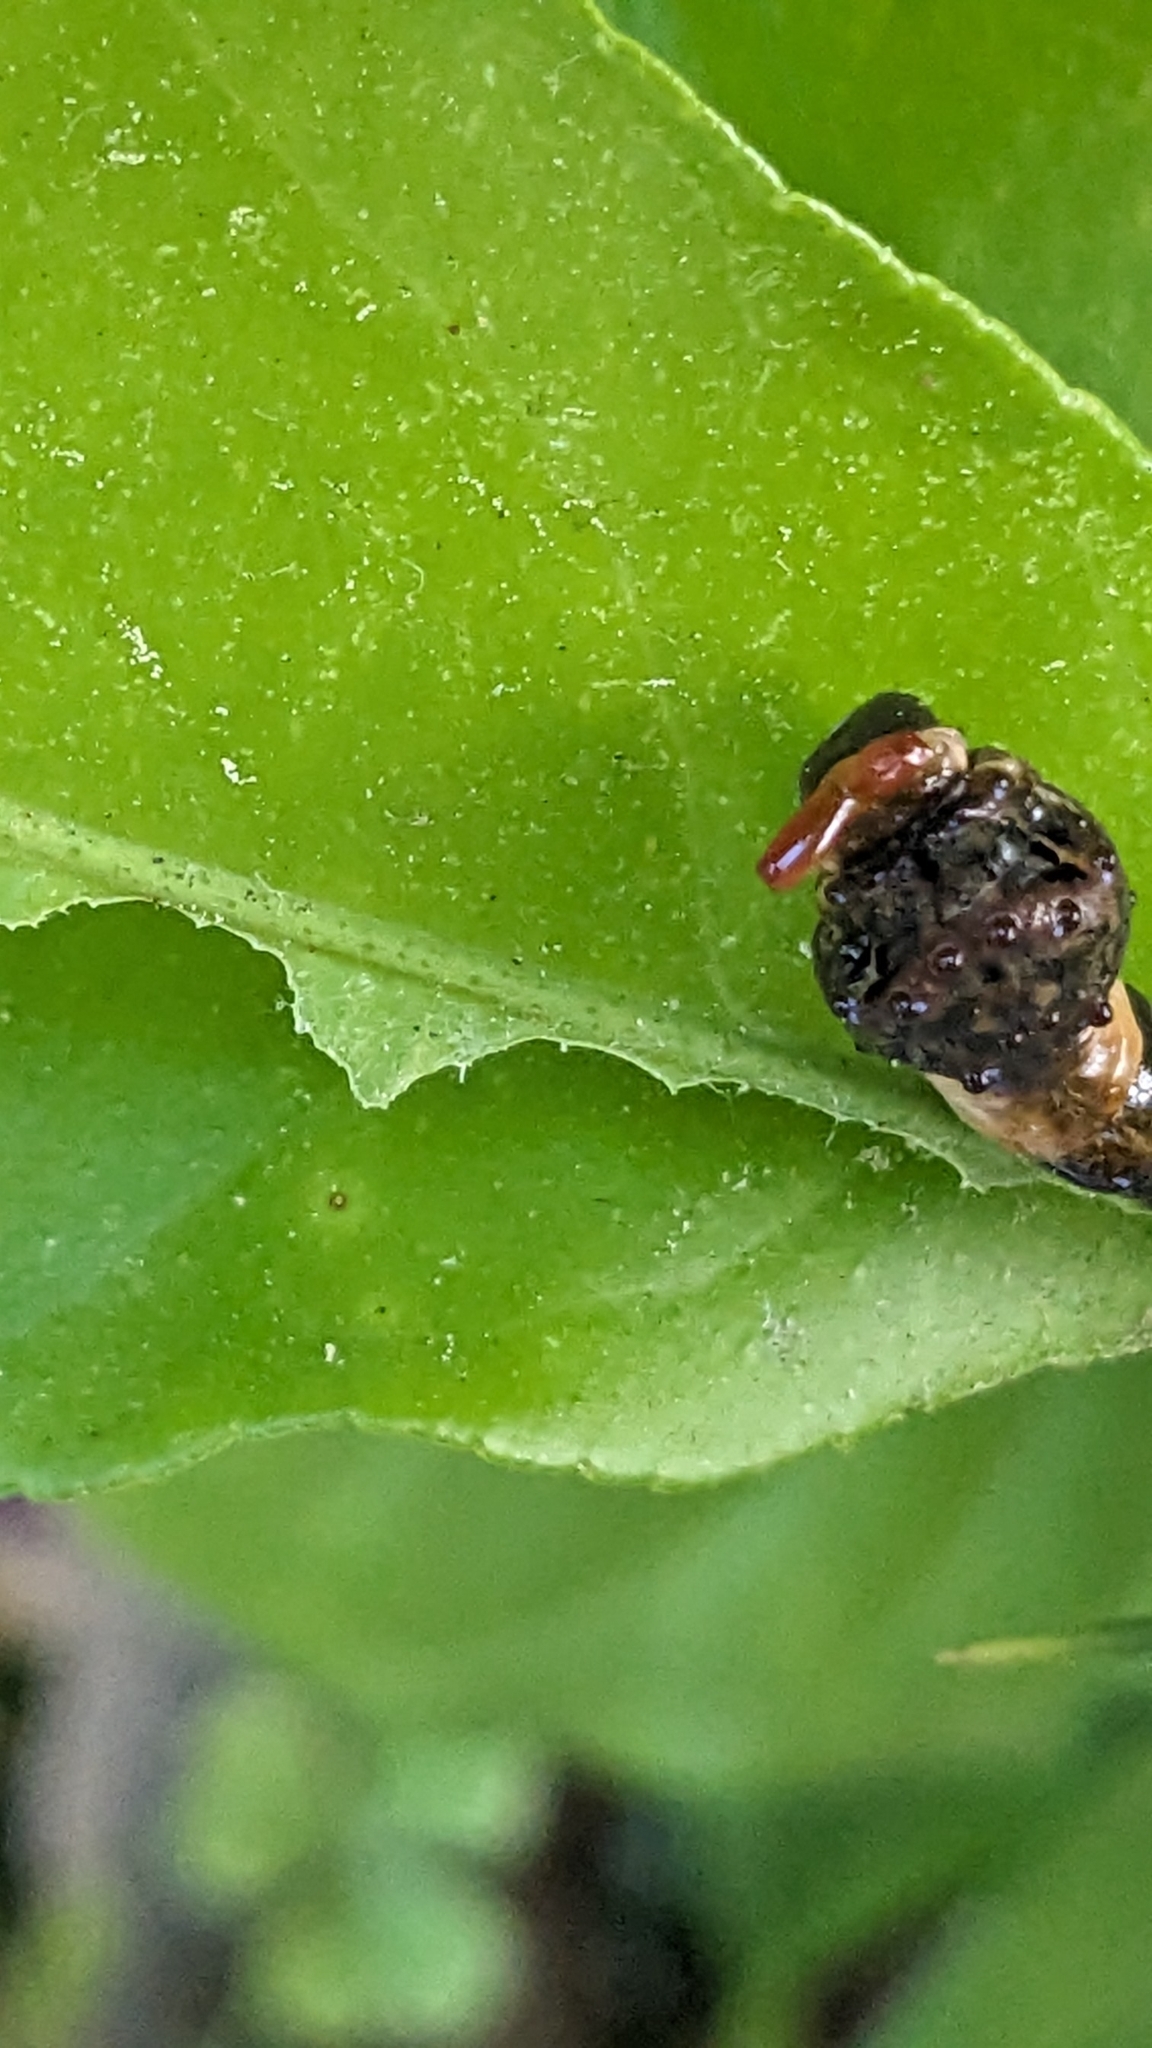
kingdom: Animalia
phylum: Arthropoda
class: Insecta
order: Lepidoptera
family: Papilionidae
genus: Papilio
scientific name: Papilio cresphontes
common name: Giant swallowtail
